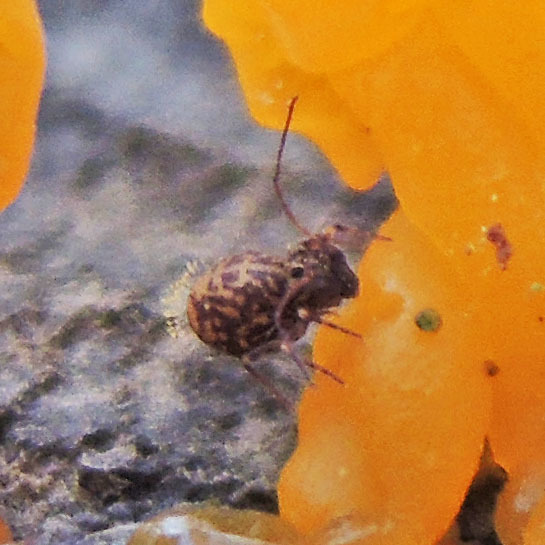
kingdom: Animalia
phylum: Arthropoda
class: Collembola
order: Symphypleona
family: Dicyrtomidae
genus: Ptenothrix
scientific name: Ptenothrix marmorata
